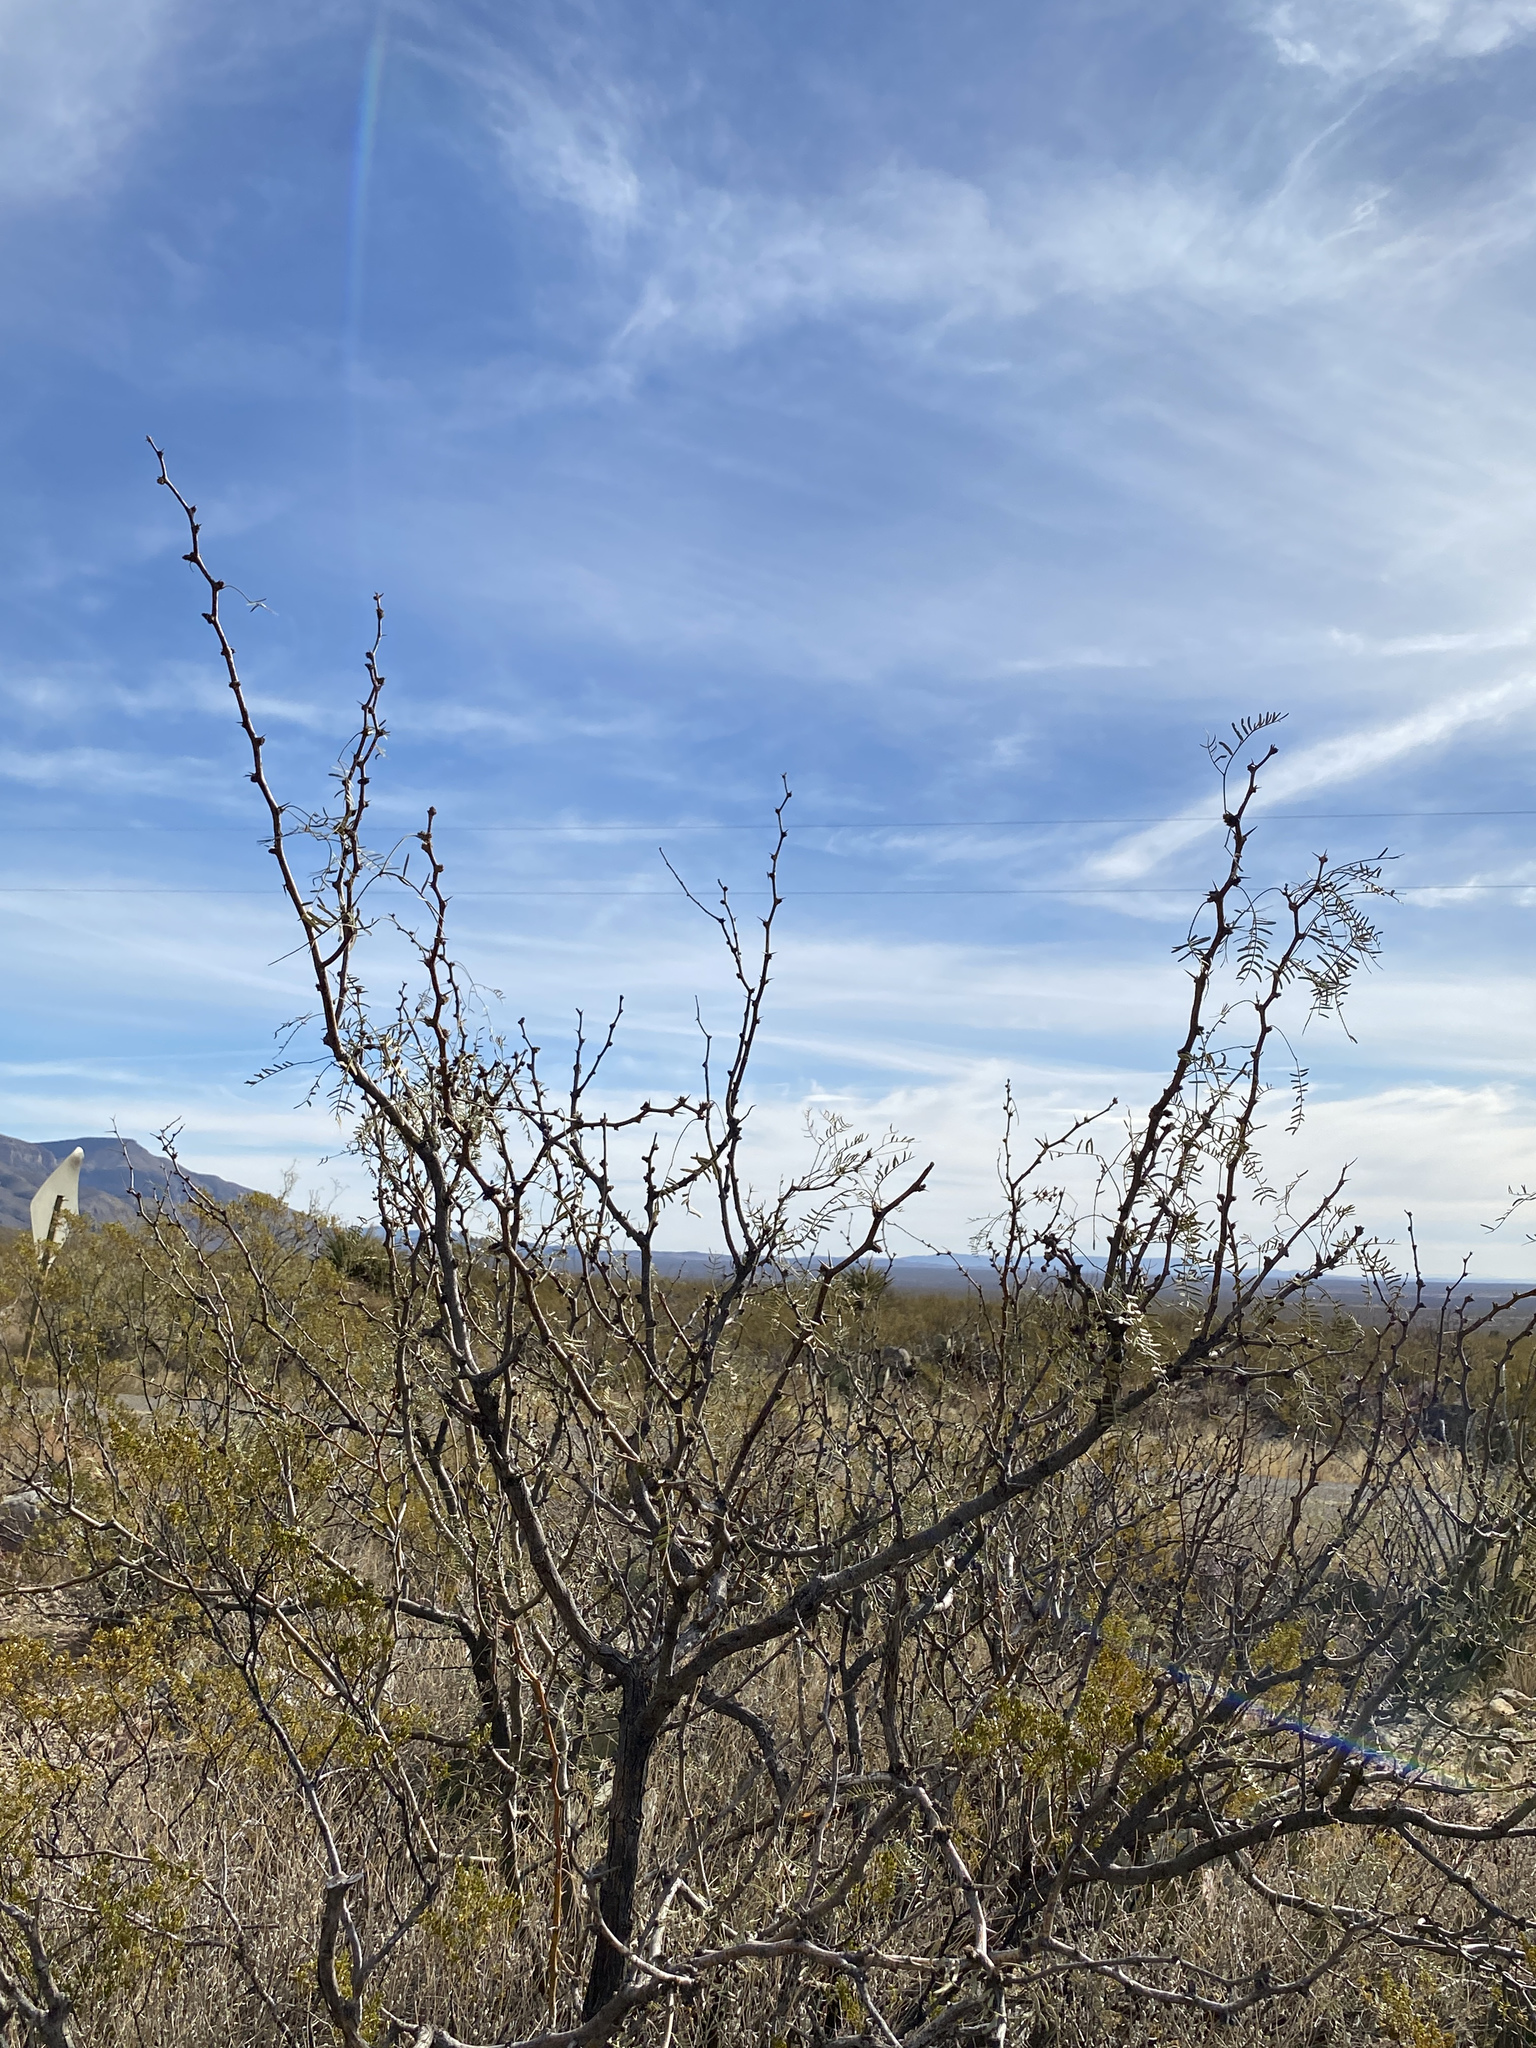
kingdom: Plantae
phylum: Tracheophyta
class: Magnoliopsida
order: Fabales
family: Fabaceae
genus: Prosopis
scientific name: Prosopis glandulosa
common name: Honey mesquite
